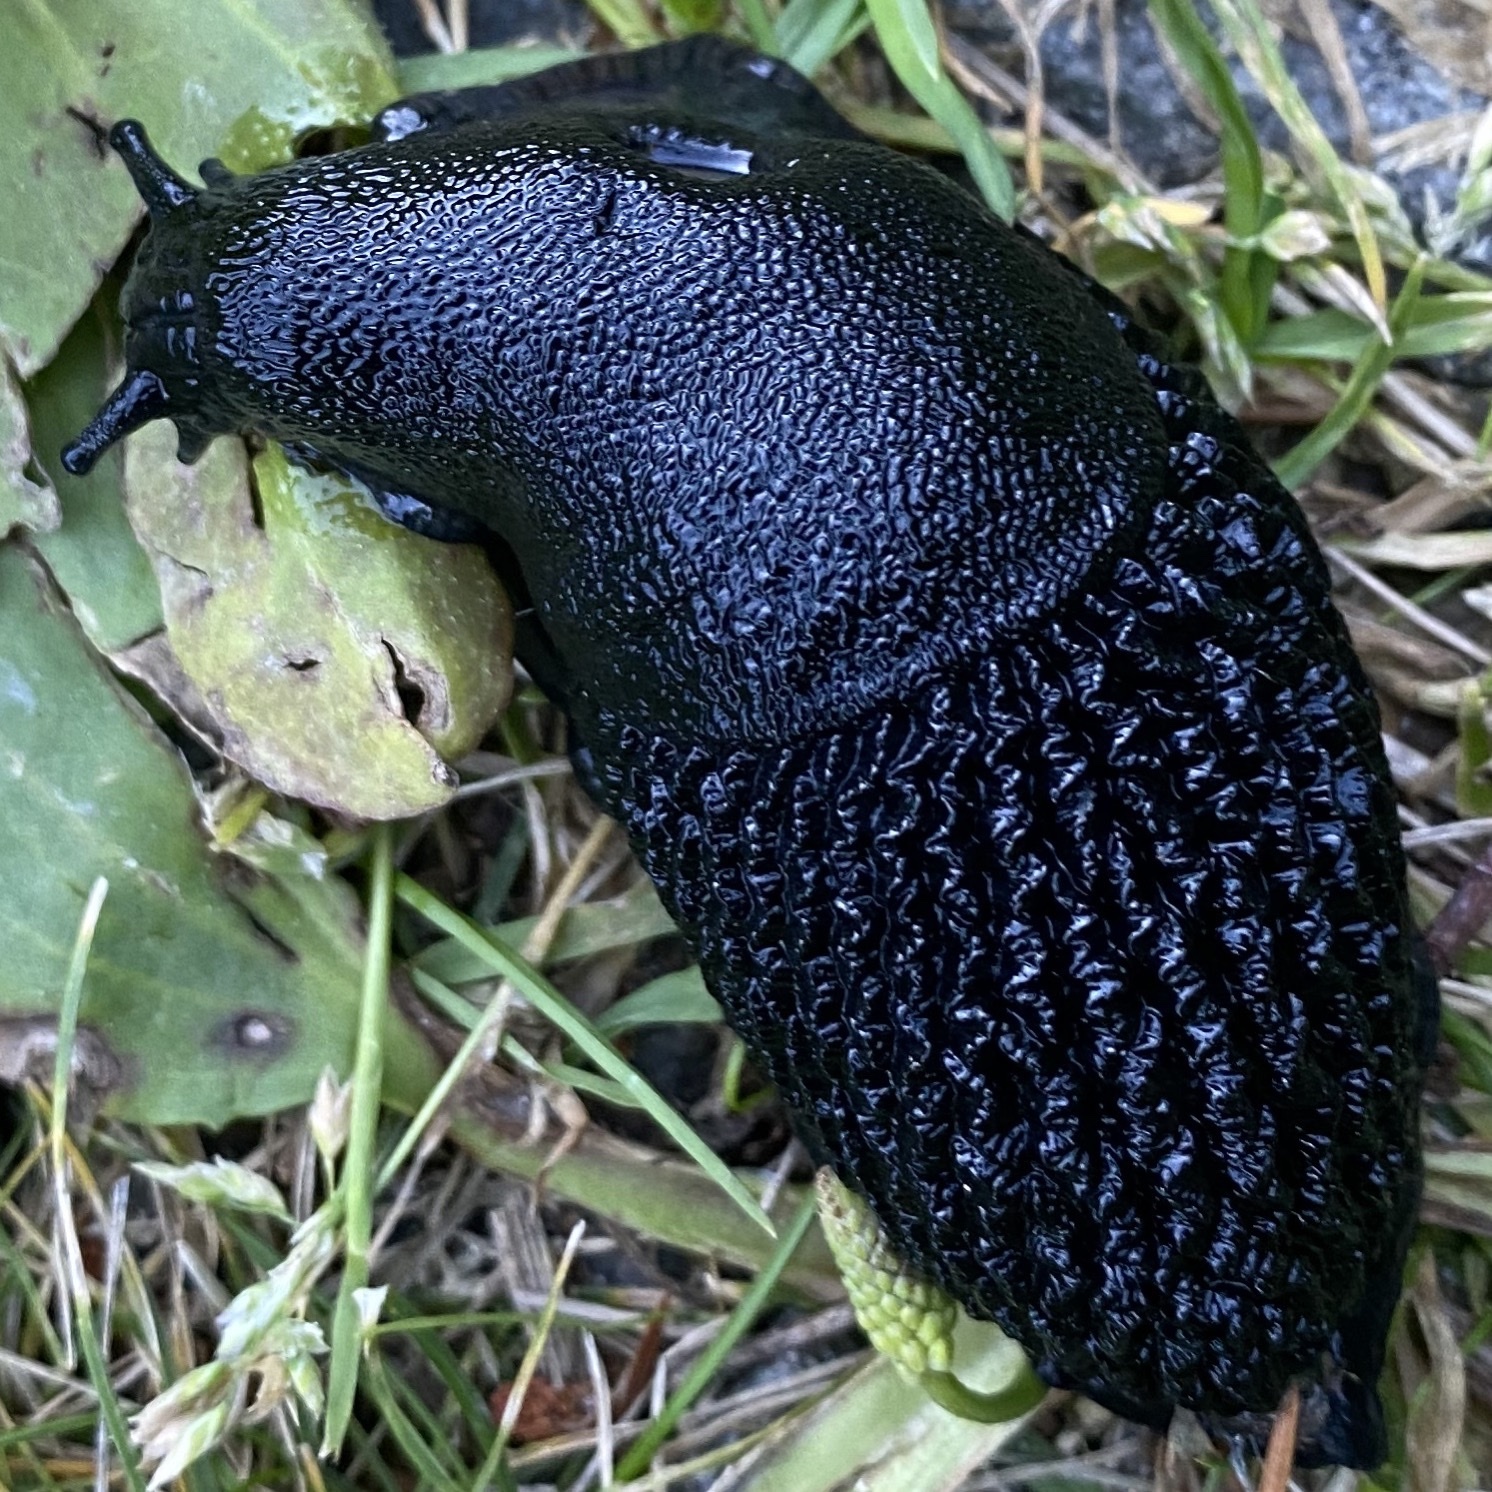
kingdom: Animalia
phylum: Mollusca
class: Gastropoda
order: Stylommatophora
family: Arionidae
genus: Arion
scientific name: Arion ater
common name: Black arion
